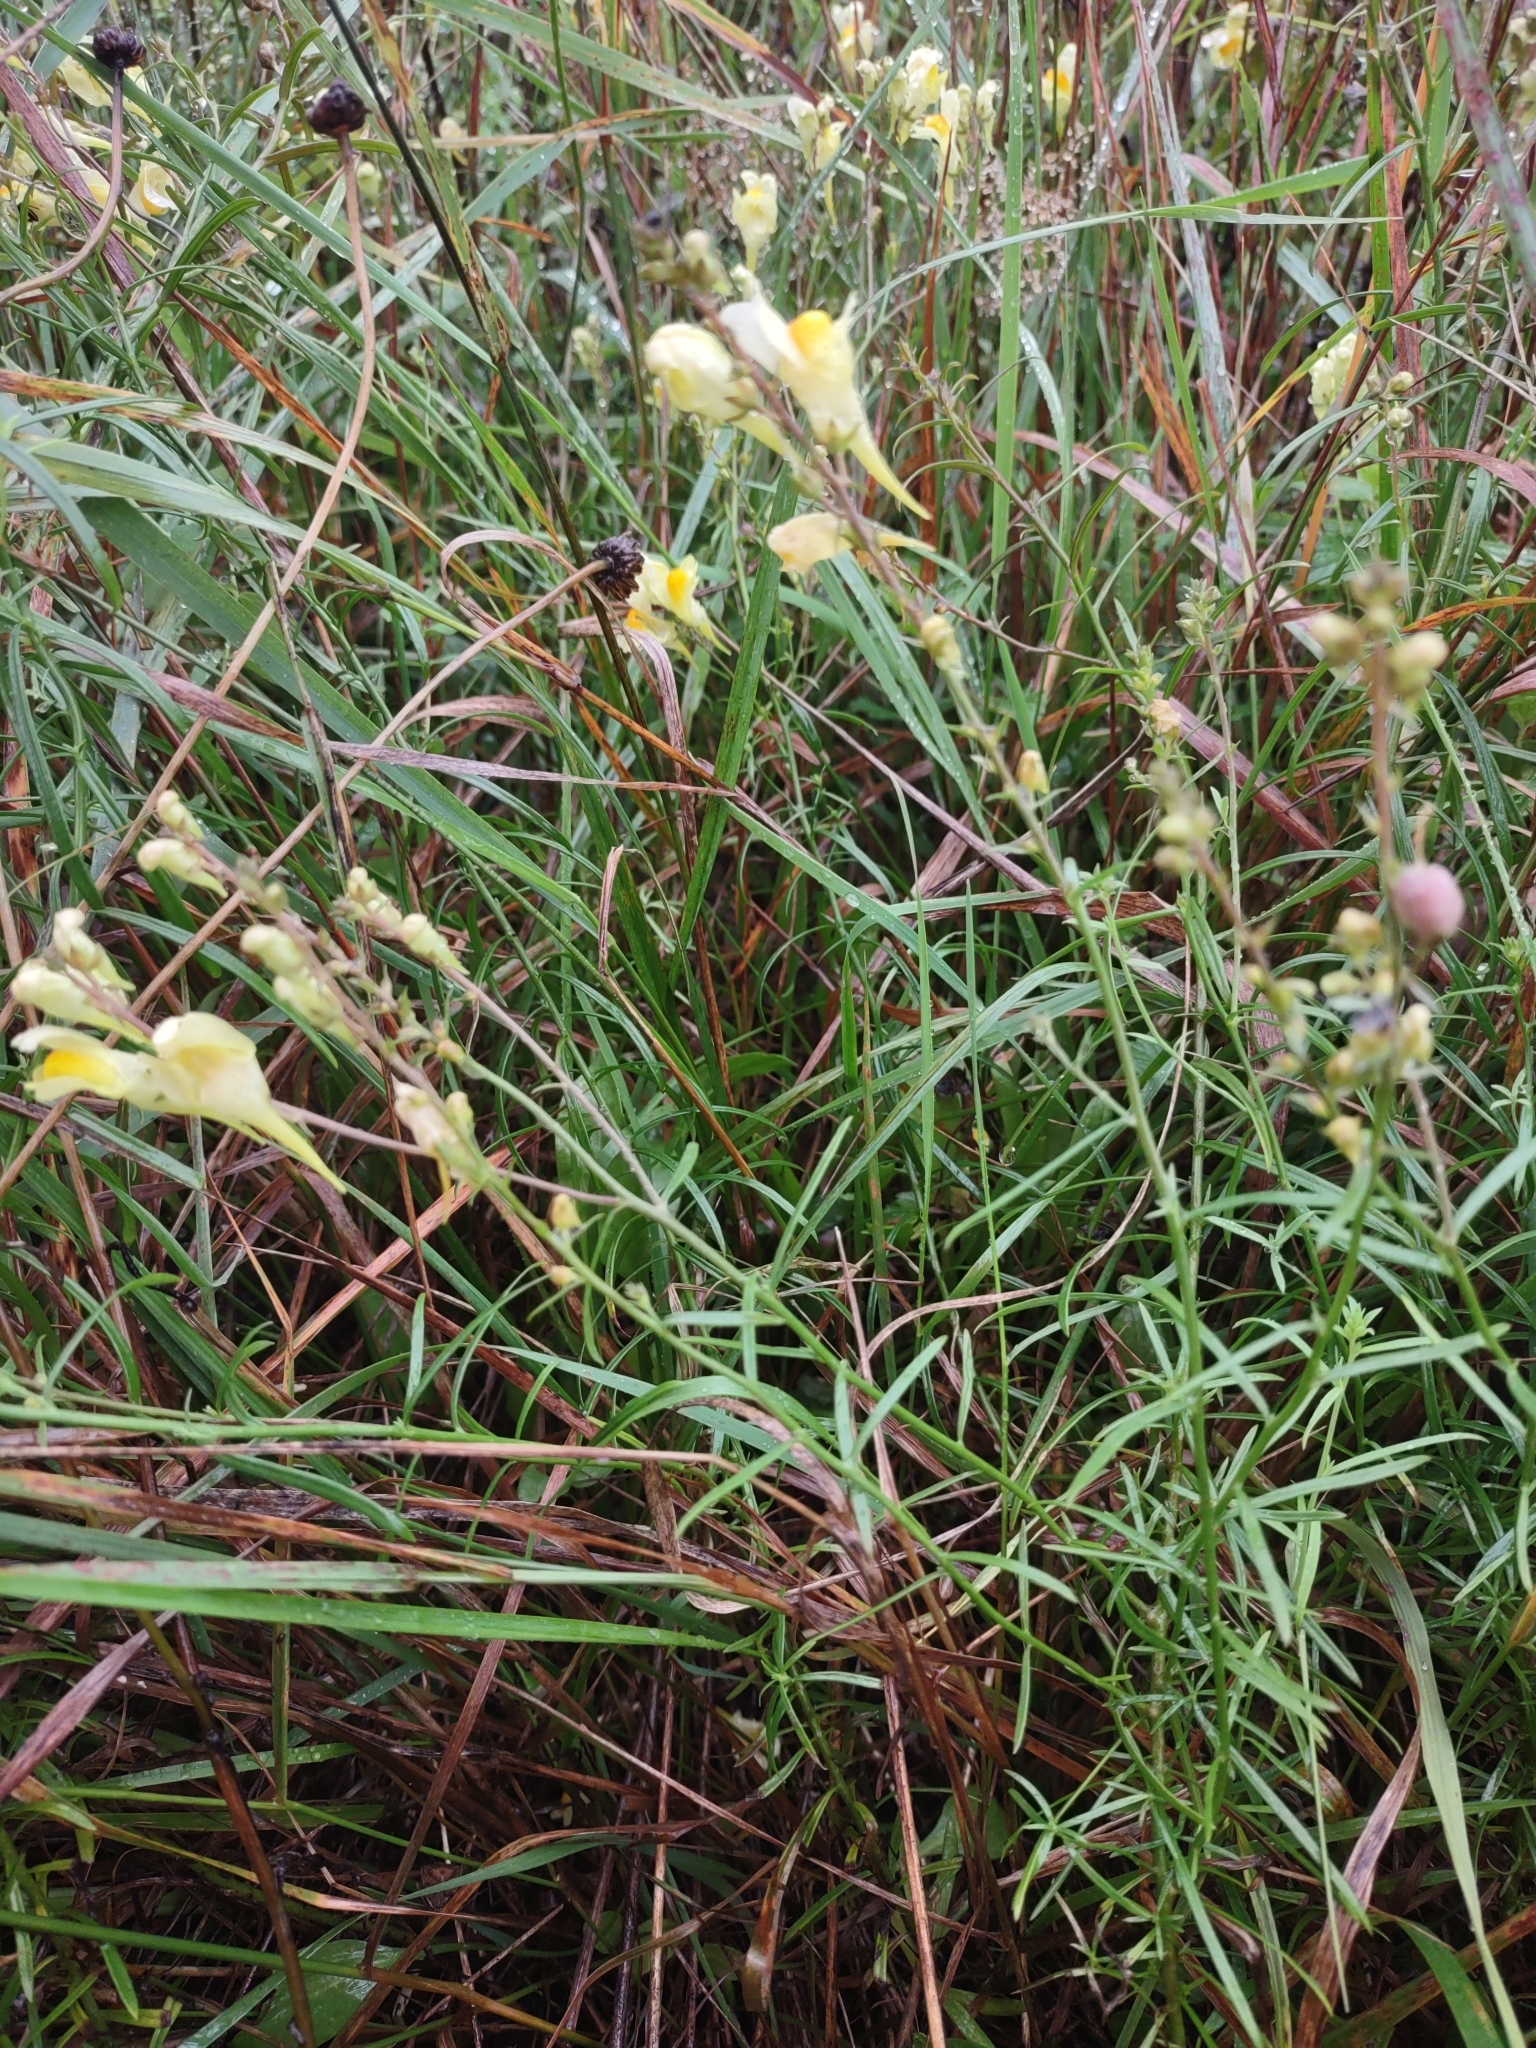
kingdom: Plantae
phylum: Tracheophyta
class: Magnoliopsida
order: Lamiales
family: Plantaginaceae
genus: Linaria
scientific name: Linaria vulgaris
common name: Butter and eggs
